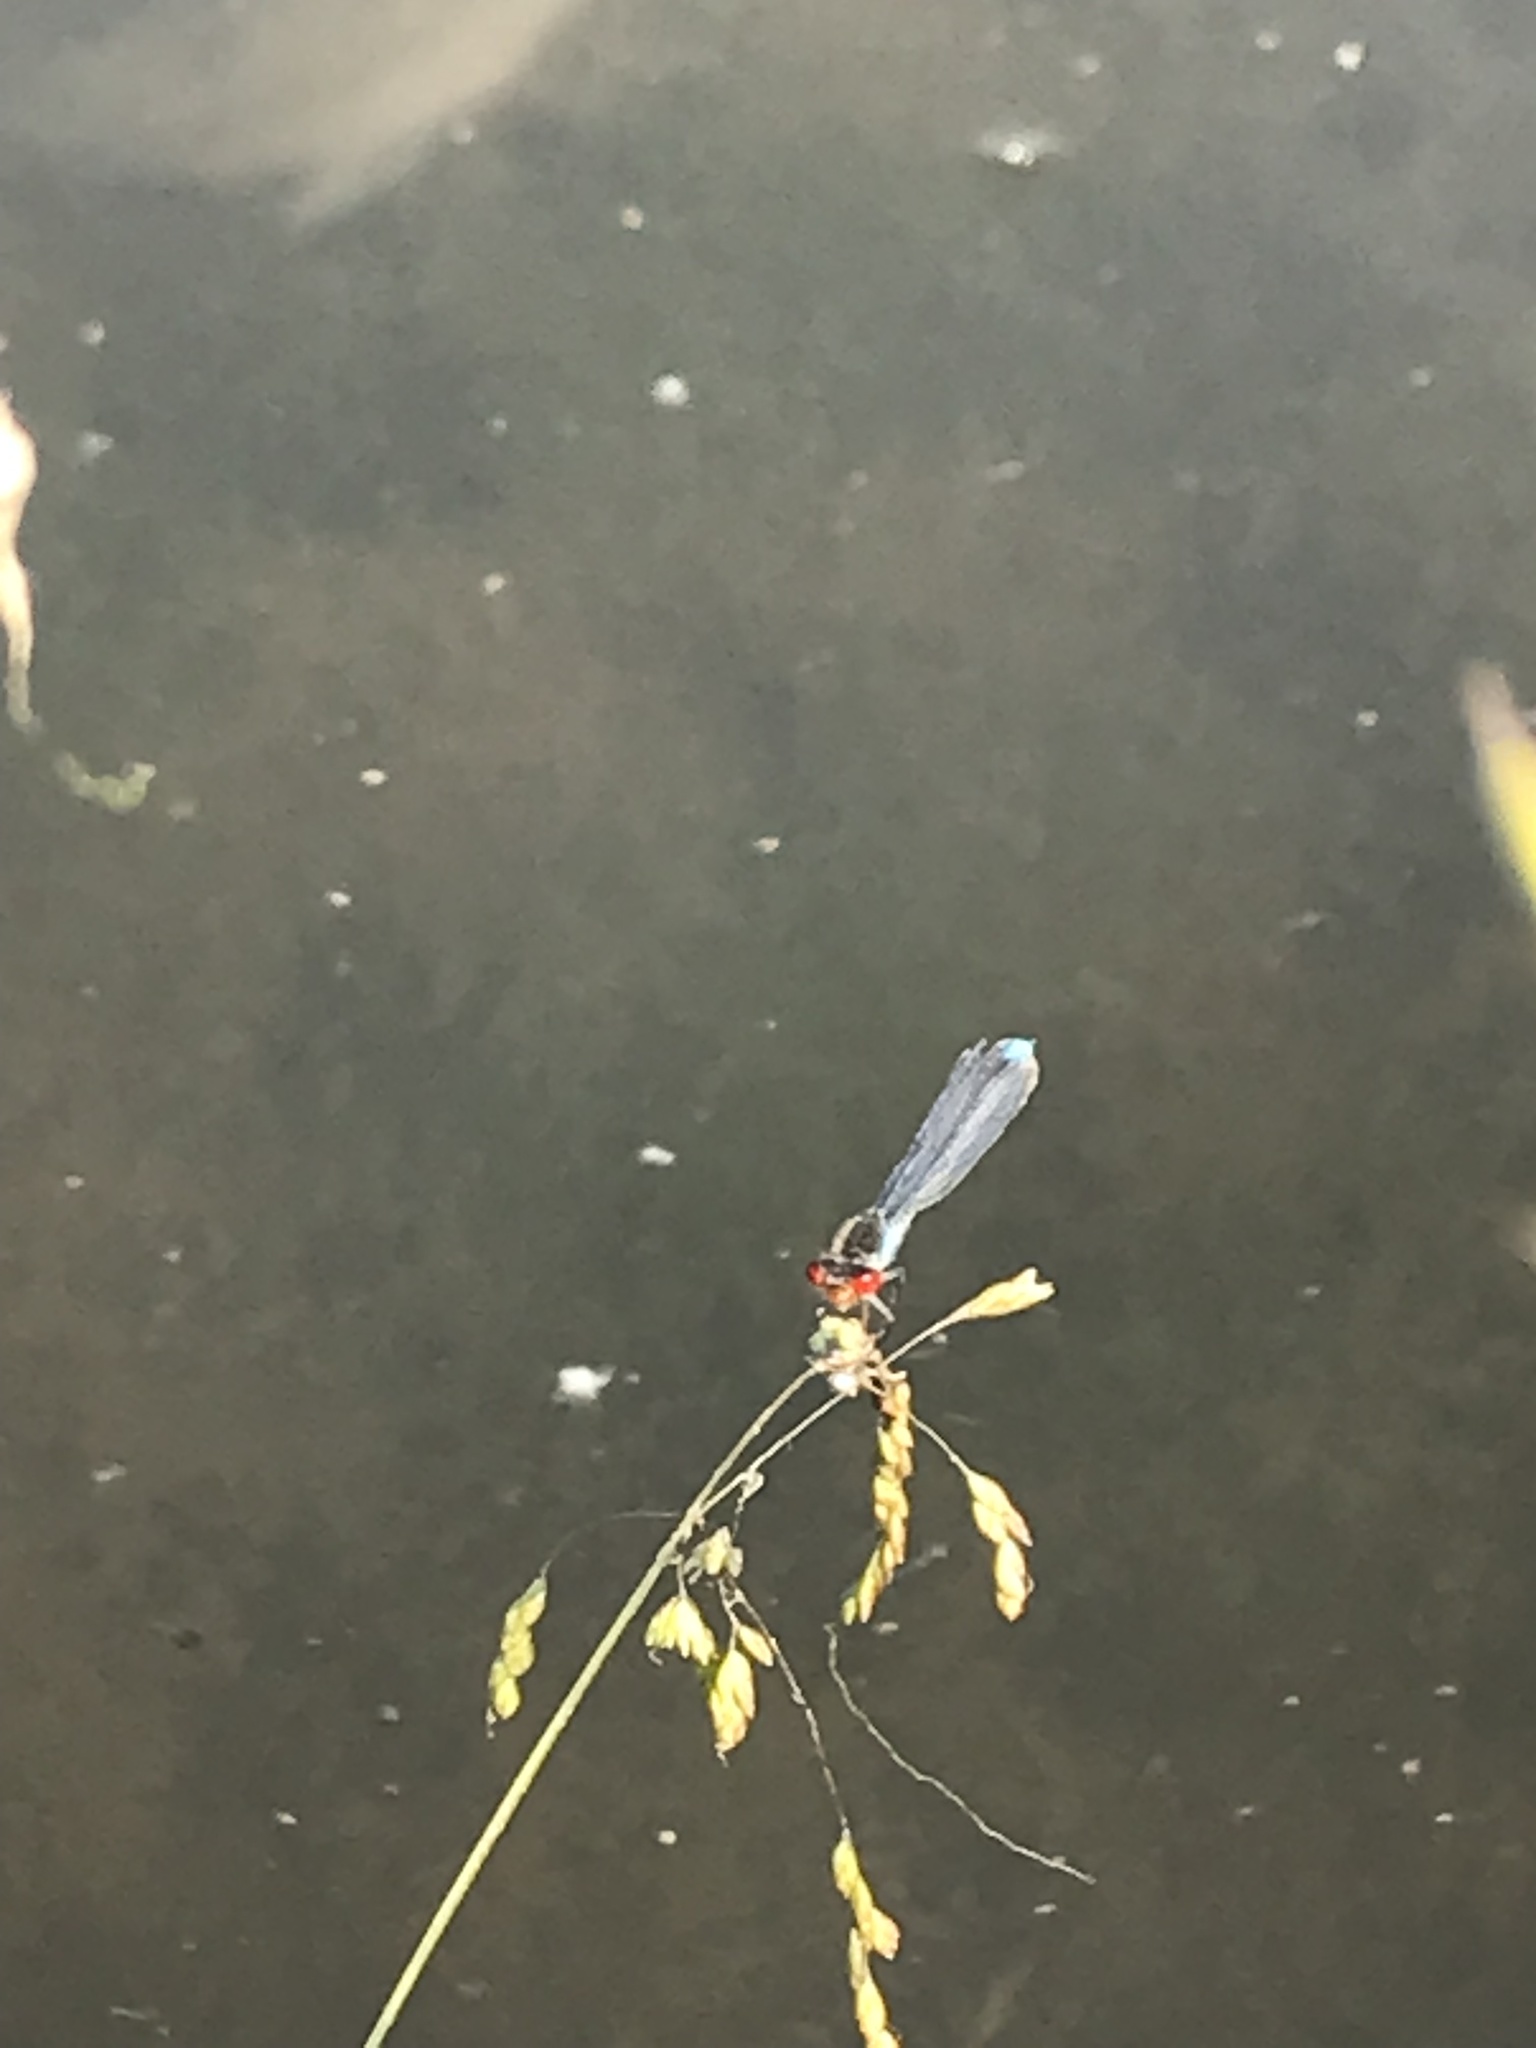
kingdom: Animalia
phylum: Arthropoda
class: Insecta
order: Odonata
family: Coenagrionidae
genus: Erythromma
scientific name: Erythromma najas
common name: Red-eyed damselfly
